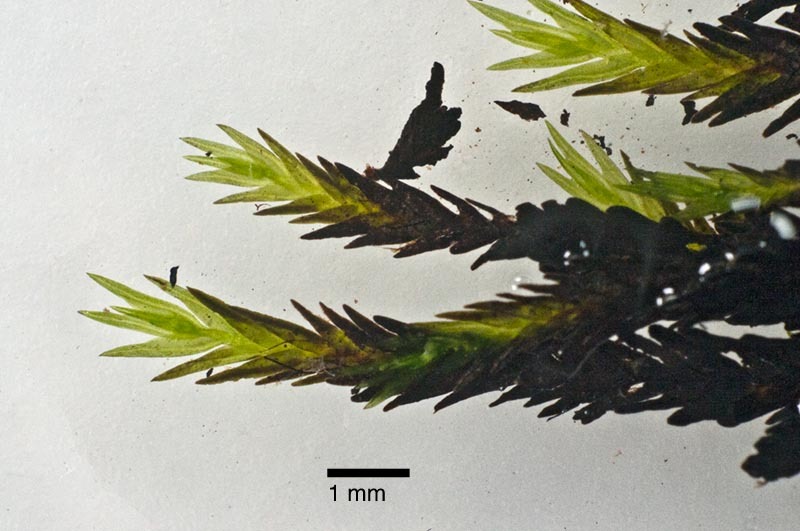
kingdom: Plantae
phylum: Bryophyta
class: Bryopsida
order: Dicranales
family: Fissidentaceae
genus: Fissidens
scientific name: Fissidens rigidulus
